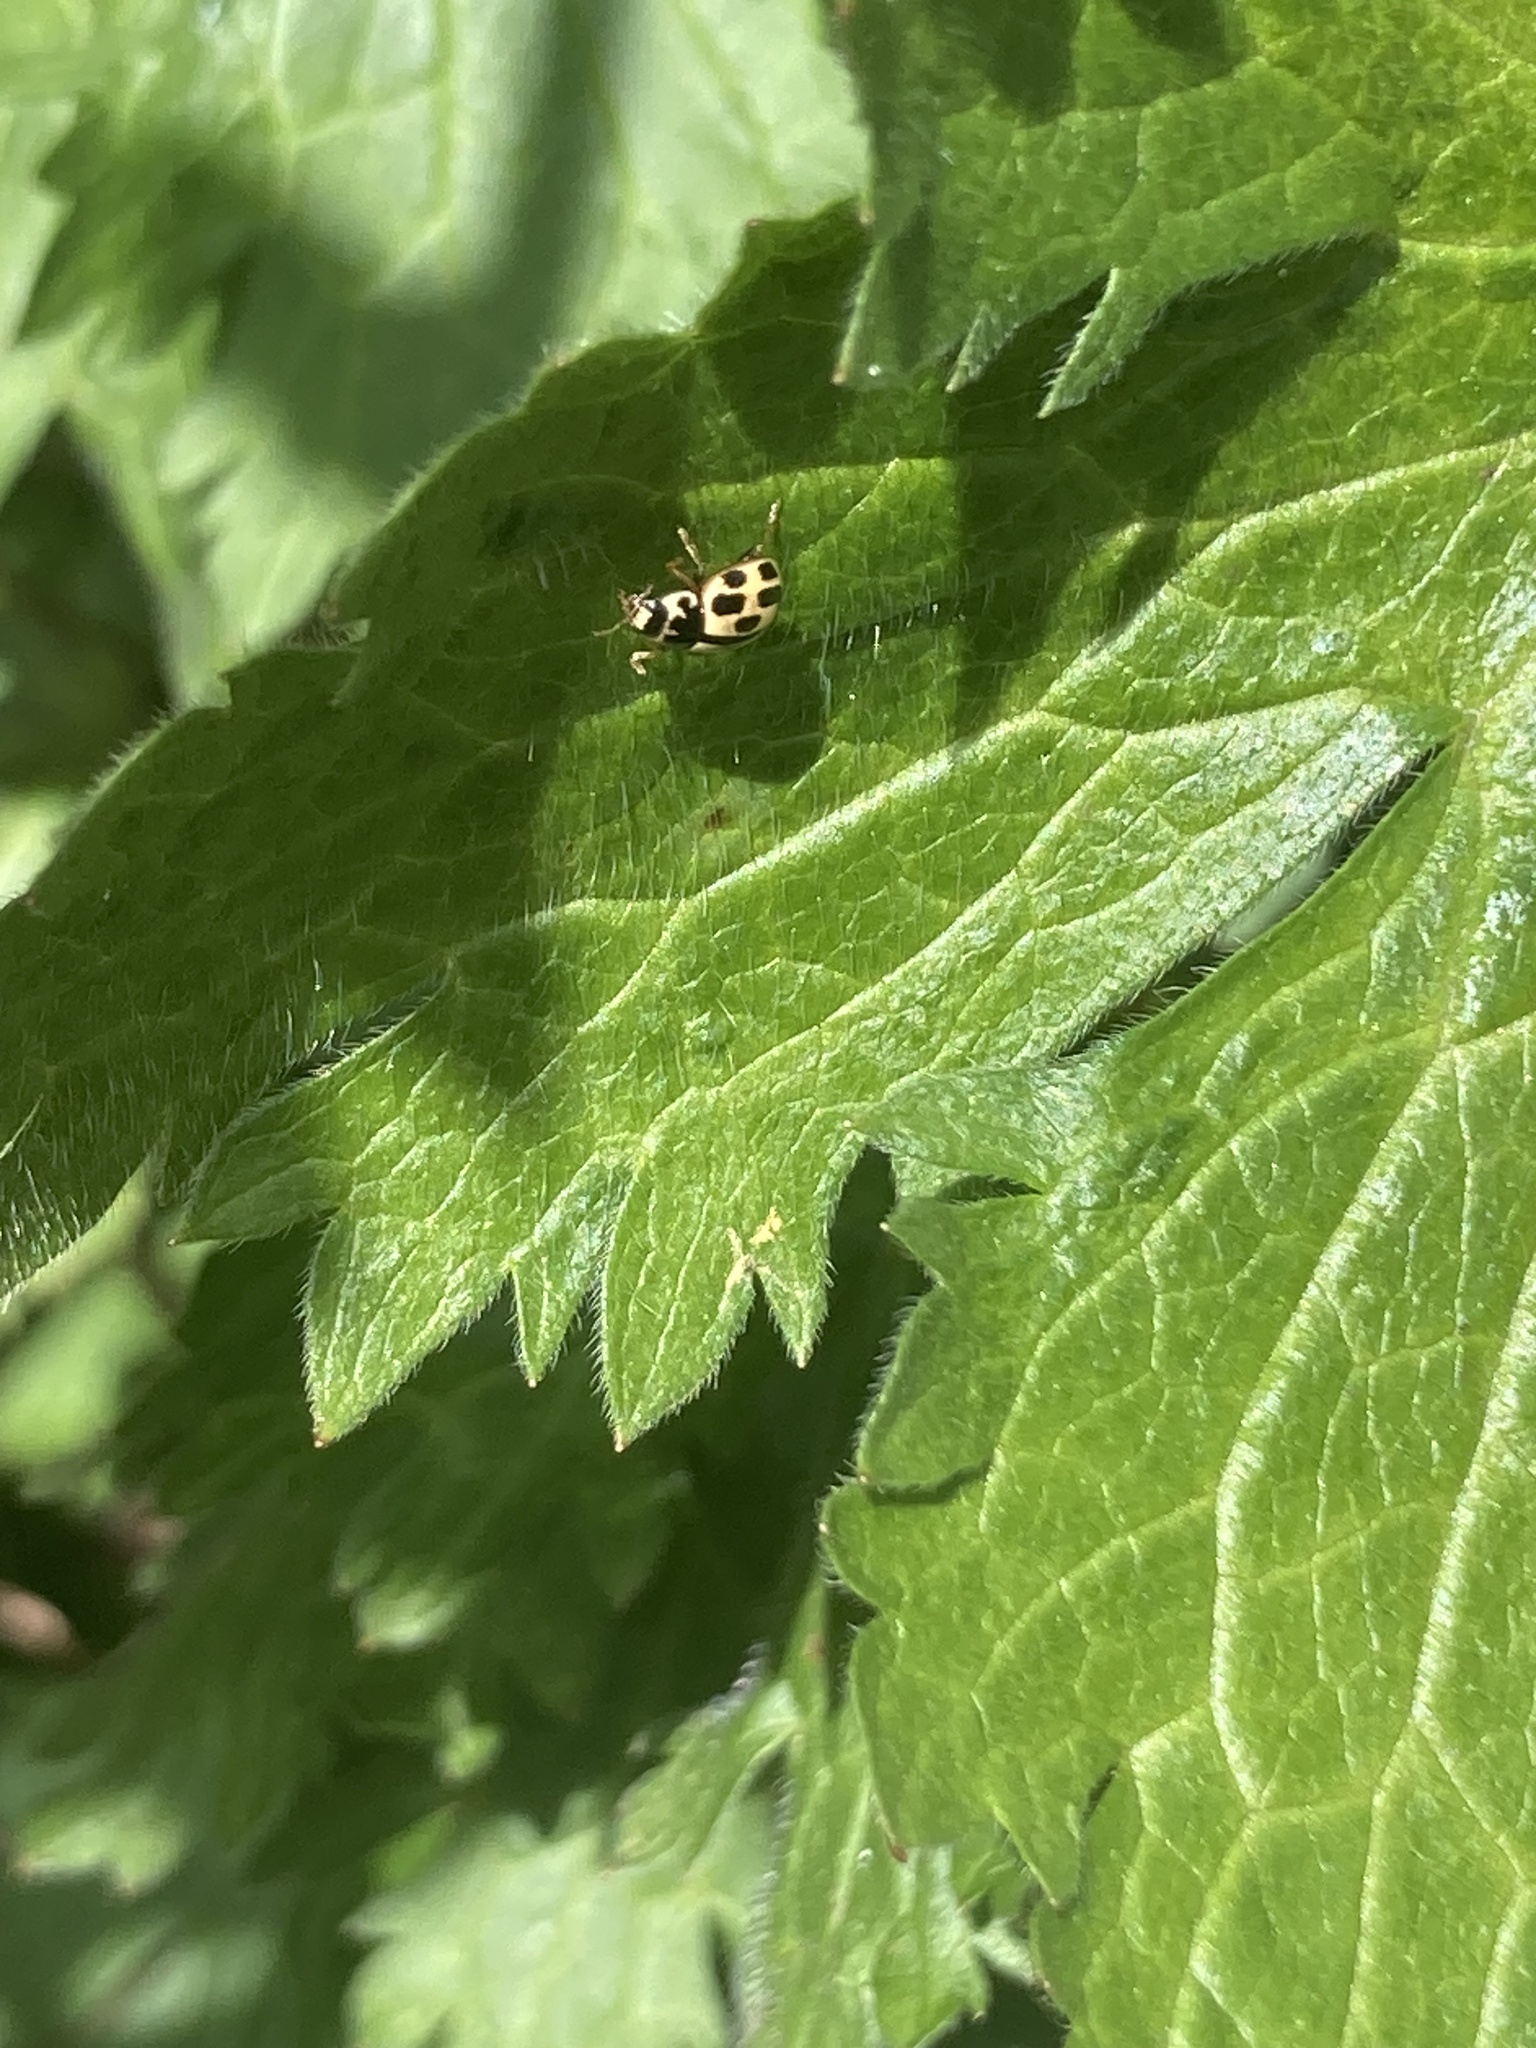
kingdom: Animalia
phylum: Arthropoda
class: Insecta
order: Coleoptera
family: Coccinellidae
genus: Propylaea
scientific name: Propylaea quatuordecimpunctata
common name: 14-spotted ladybird beetle
